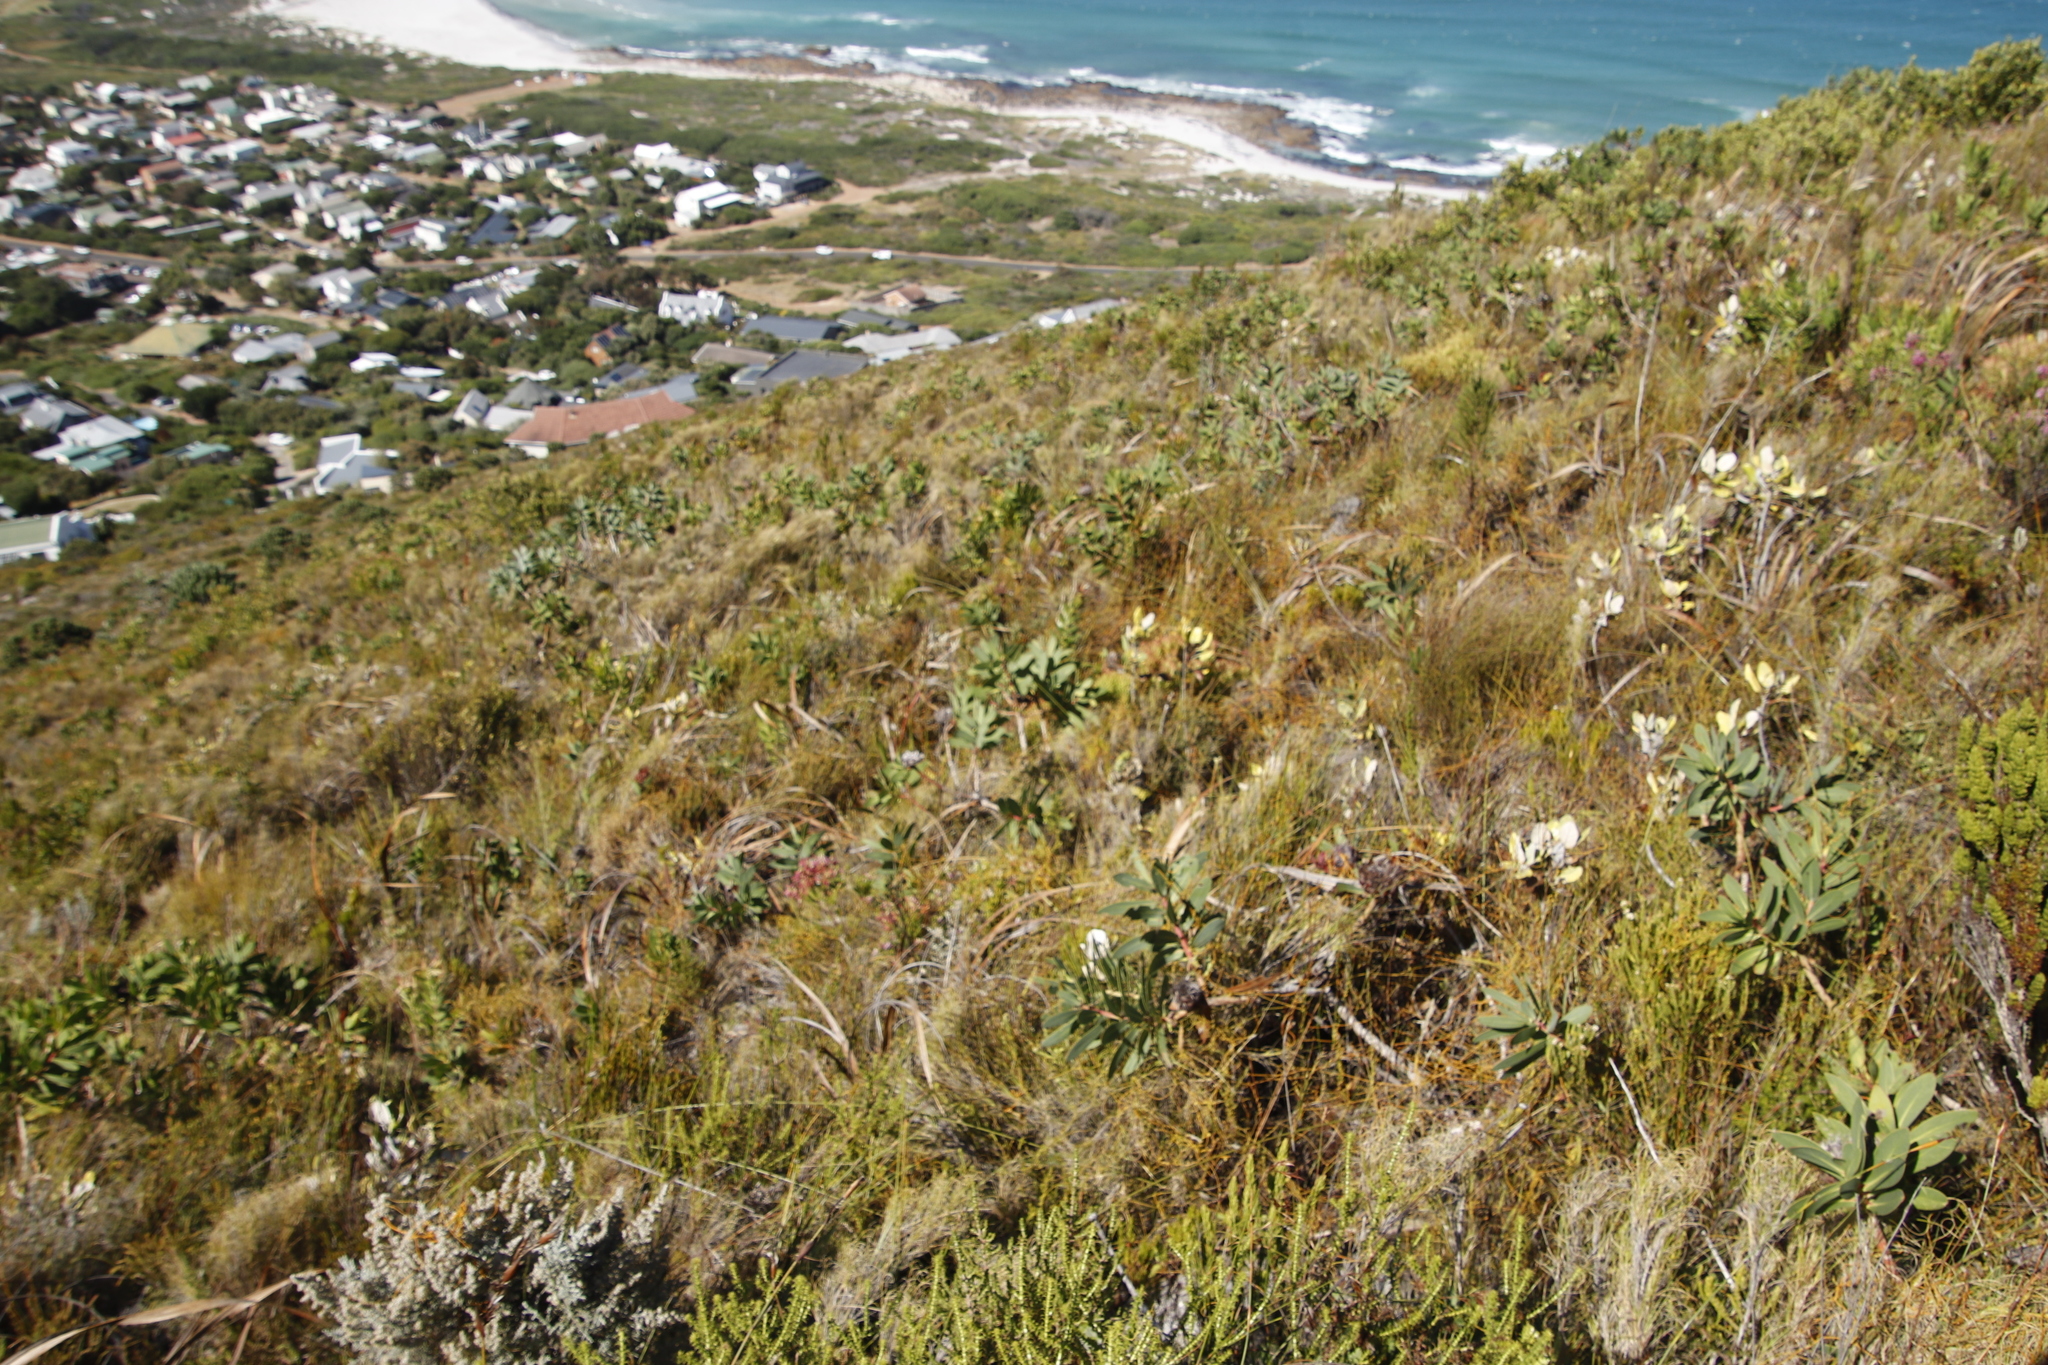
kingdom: Plantae
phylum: Tracheophyta
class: Magnoliopsida
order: Proteales
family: Proteaceae
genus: Protea
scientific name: Protea nitida
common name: Tree protea
